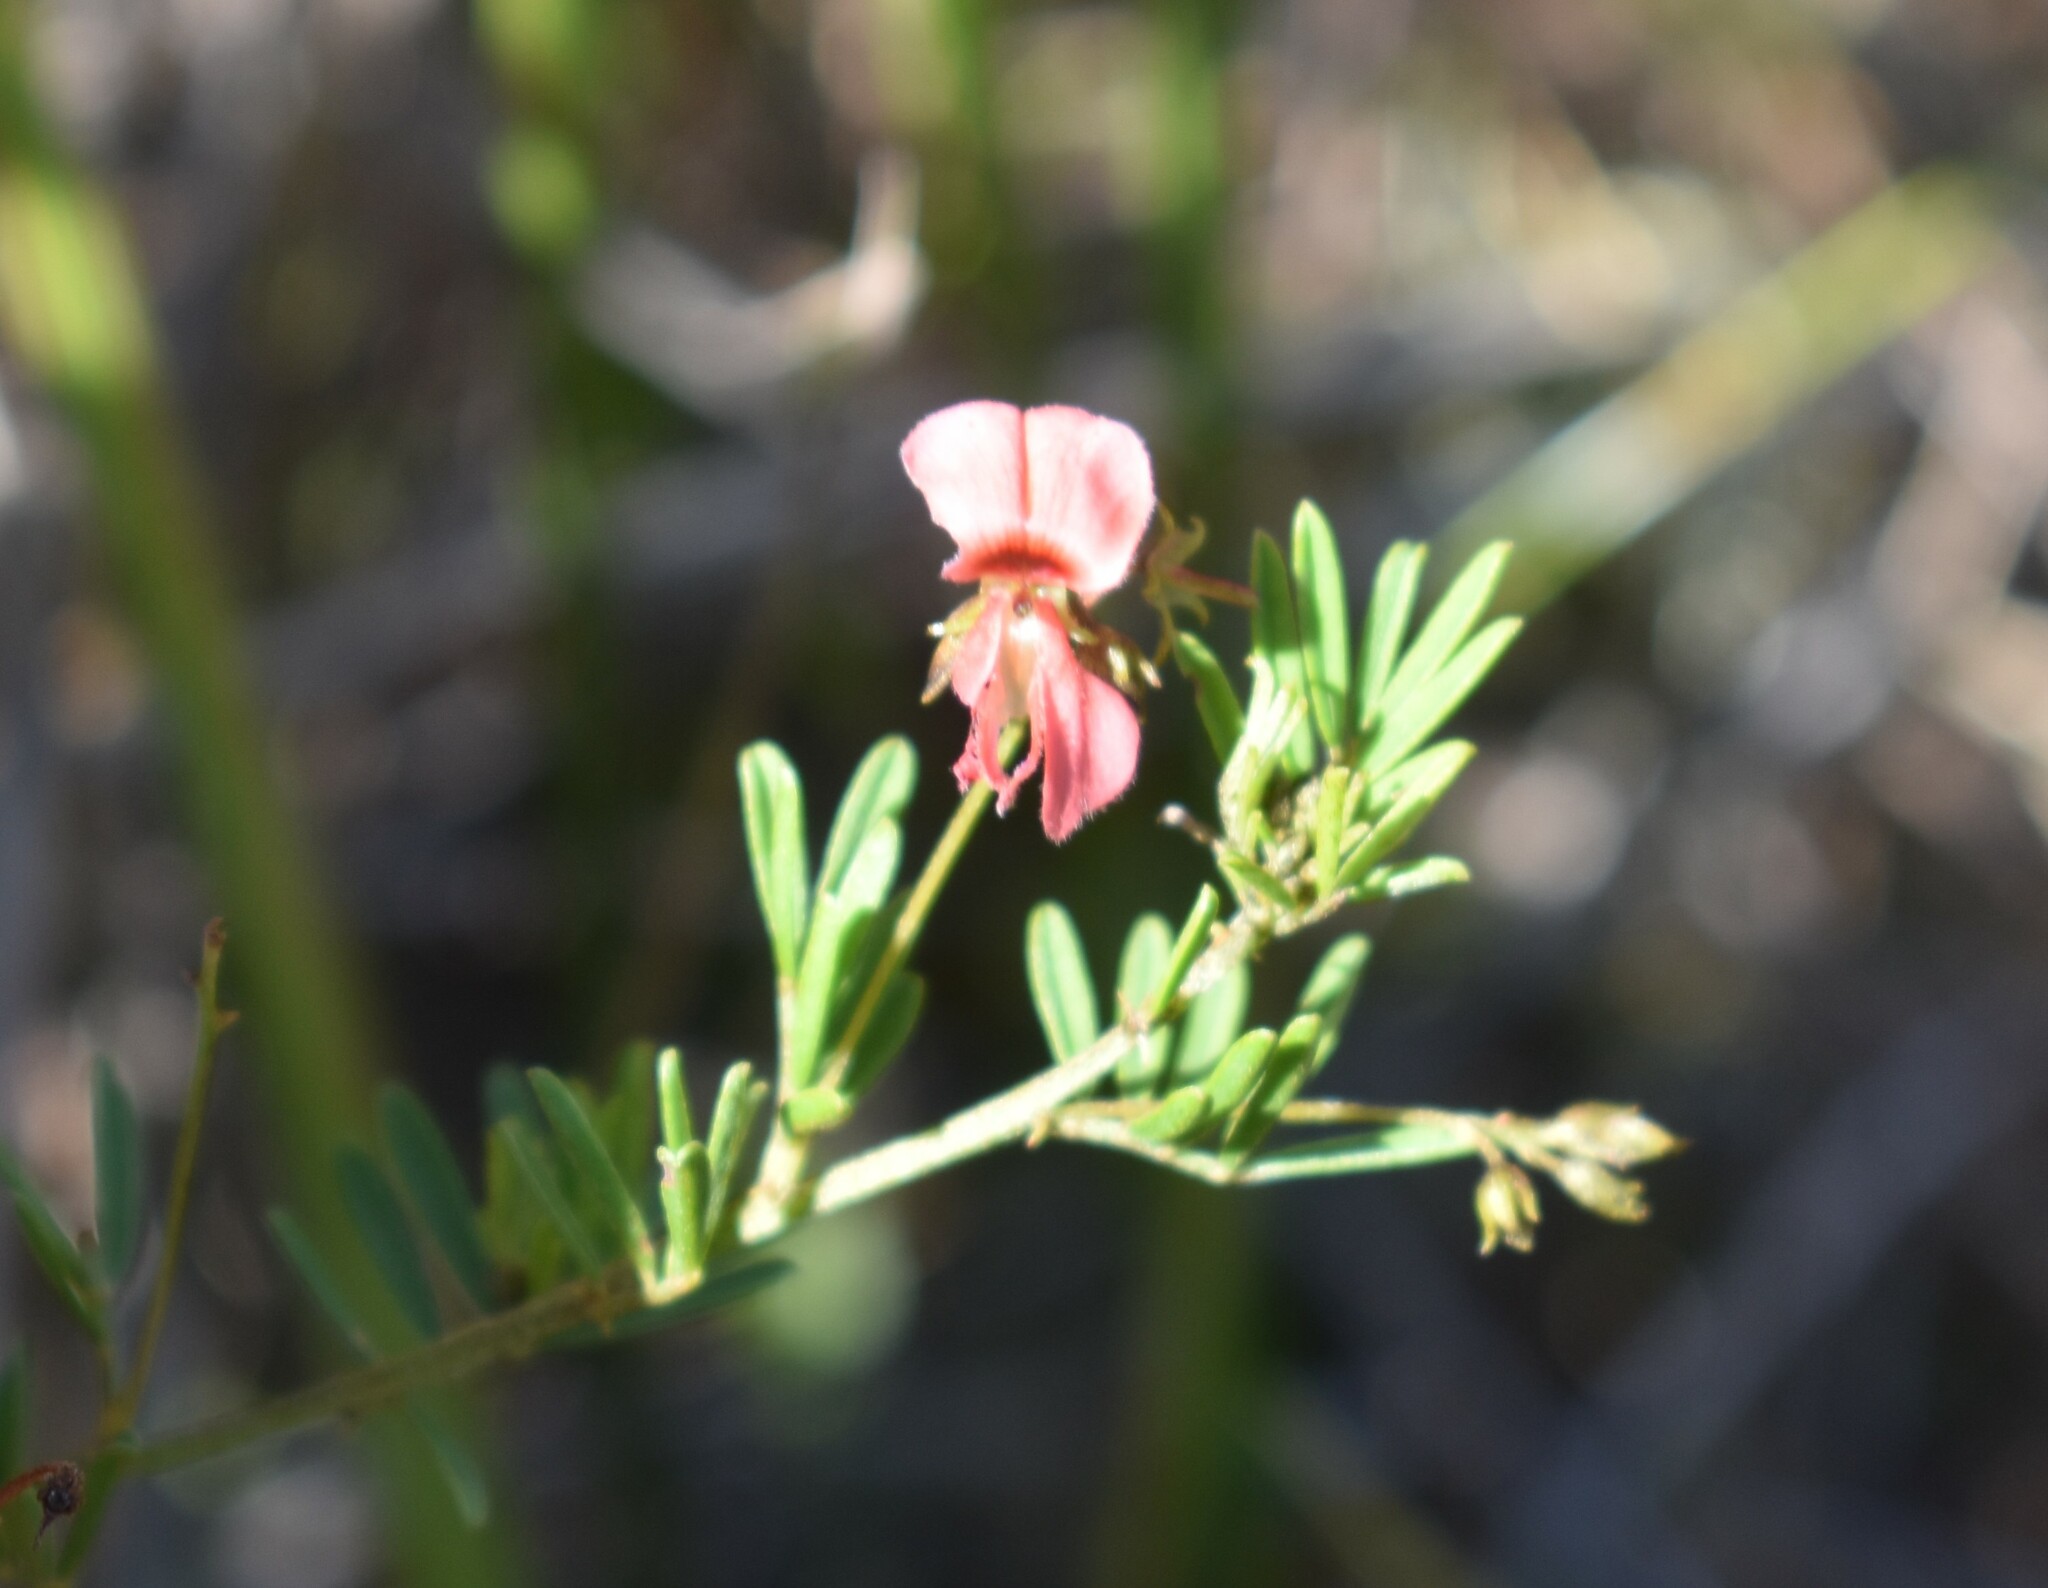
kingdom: Plantae
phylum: Tracheophyta
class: Magnoliopsida
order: Fabales
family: Fabaceae
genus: Indigofera
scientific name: Indigofera verrucosa
